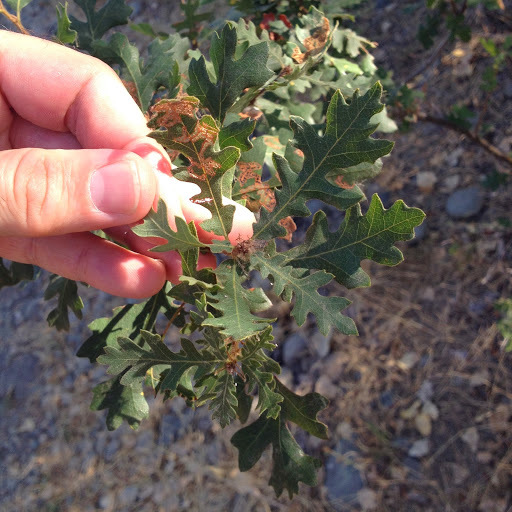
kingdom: Plantae
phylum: Tracheophyta
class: Magnoliopsida
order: Fagales
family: Fagaceae
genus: Quercus
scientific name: Quercus lobata
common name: Valley oak
